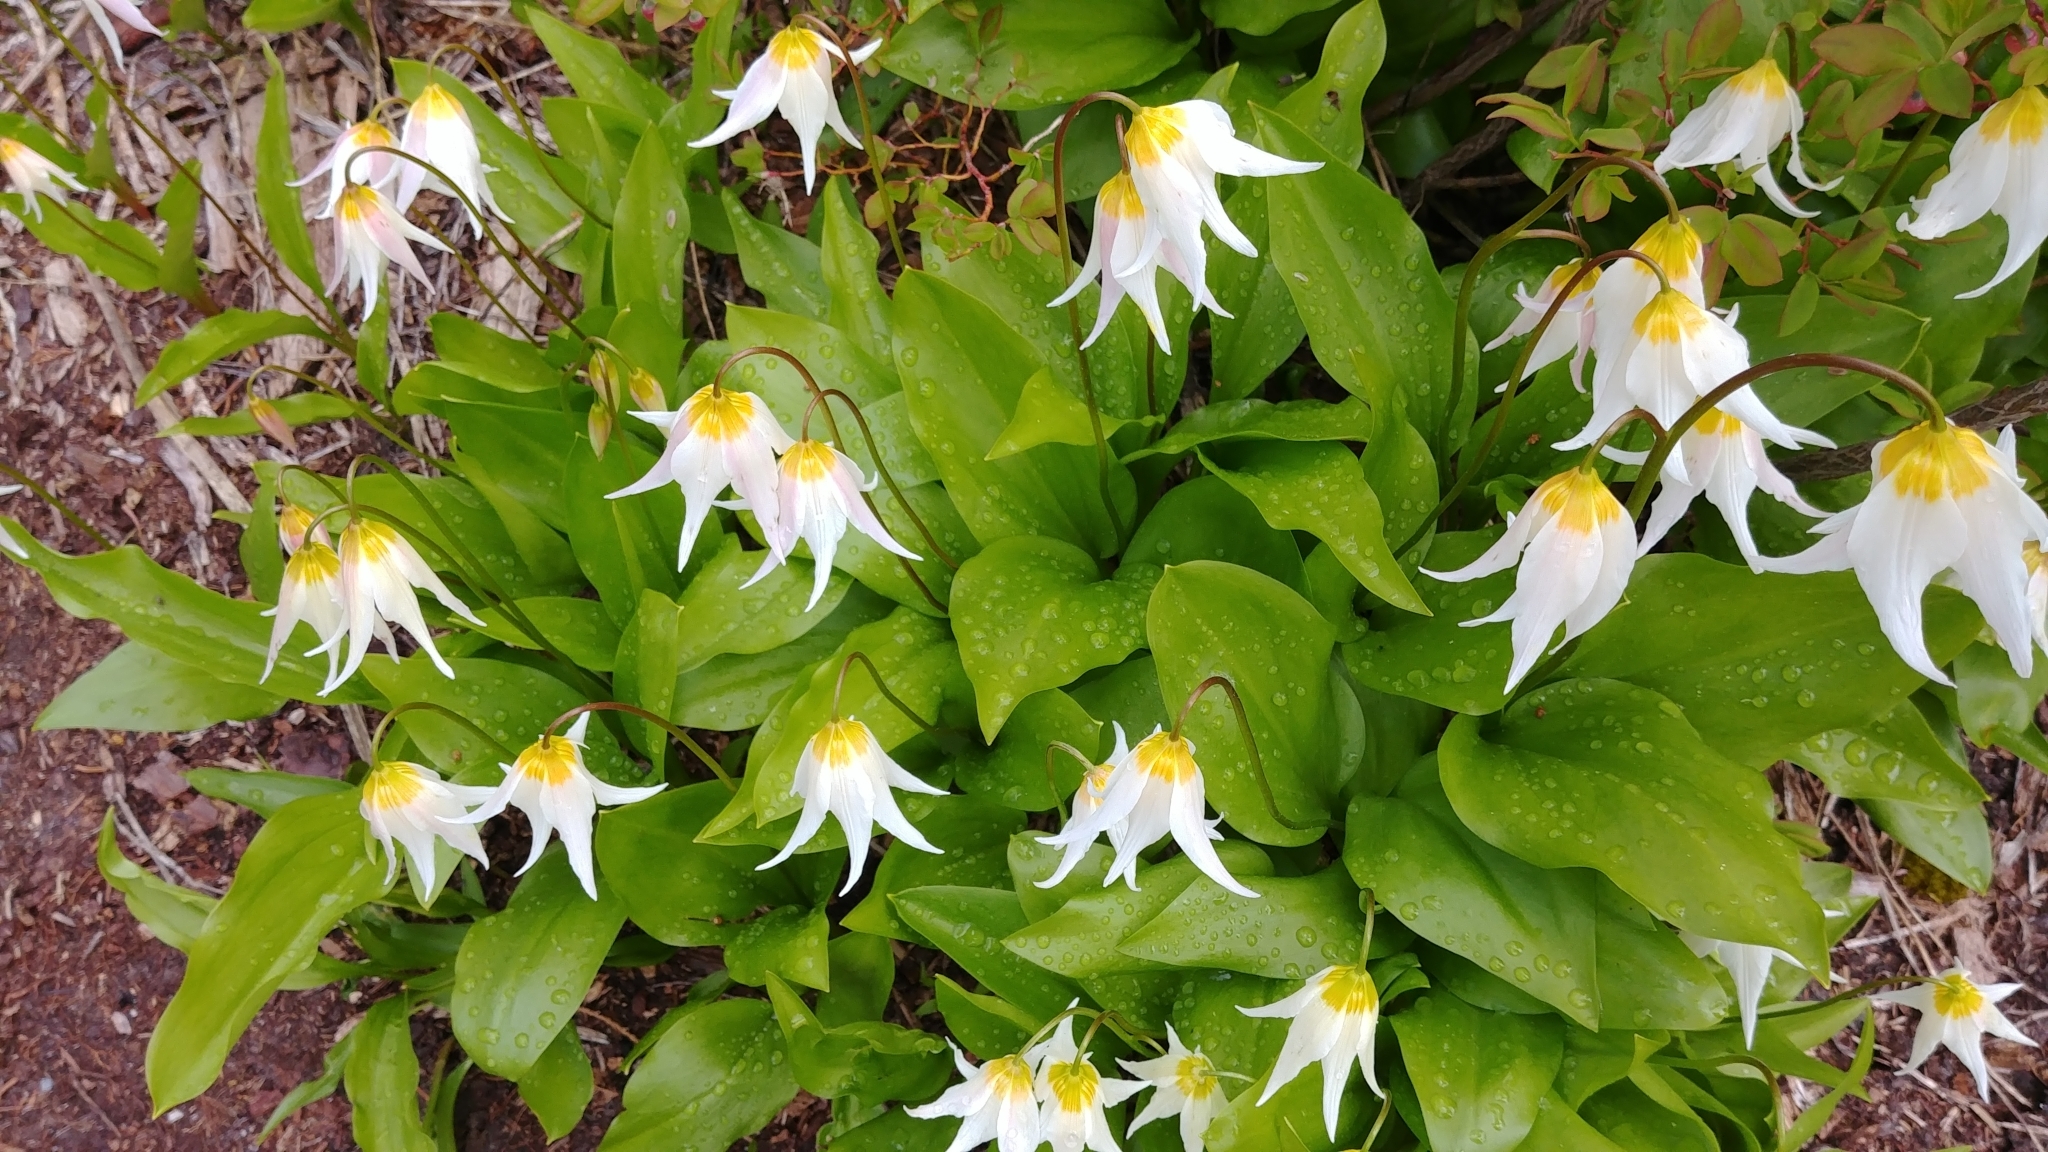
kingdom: Plantae
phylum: Tracheophyta
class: Liliopsida
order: Liliales
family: Liliaceae
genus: Erythronium
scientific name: Erythronium montanum
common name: Avalanche lily
